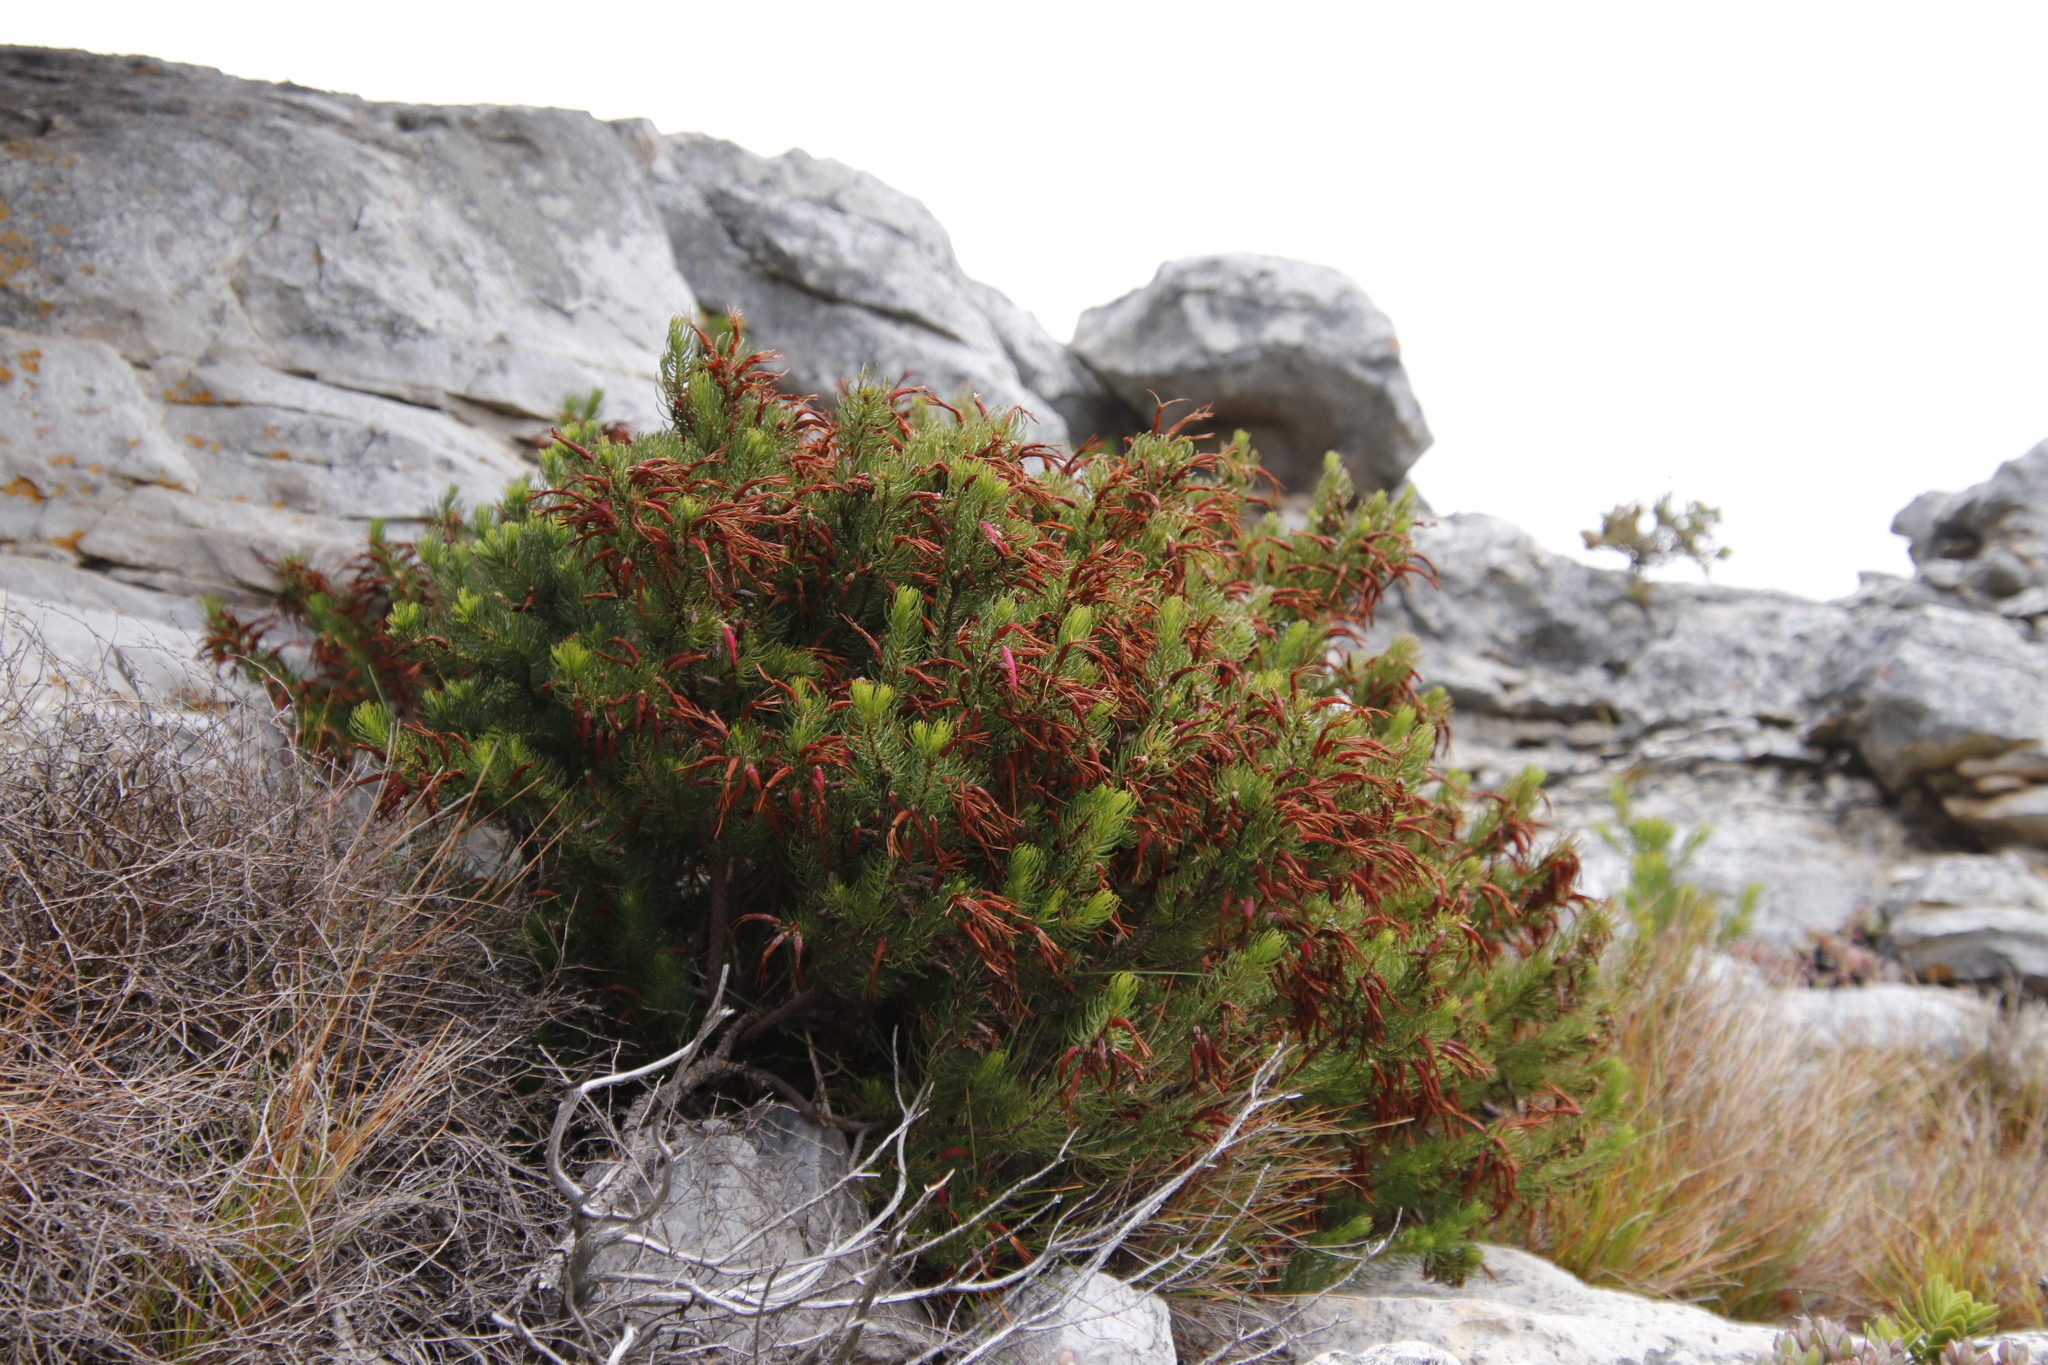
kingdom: Plantae
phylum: Tracheophyta
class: Magnoliopsida
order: Ericales
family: Ericaceae
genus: Erica
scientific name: Erica plukenetii
